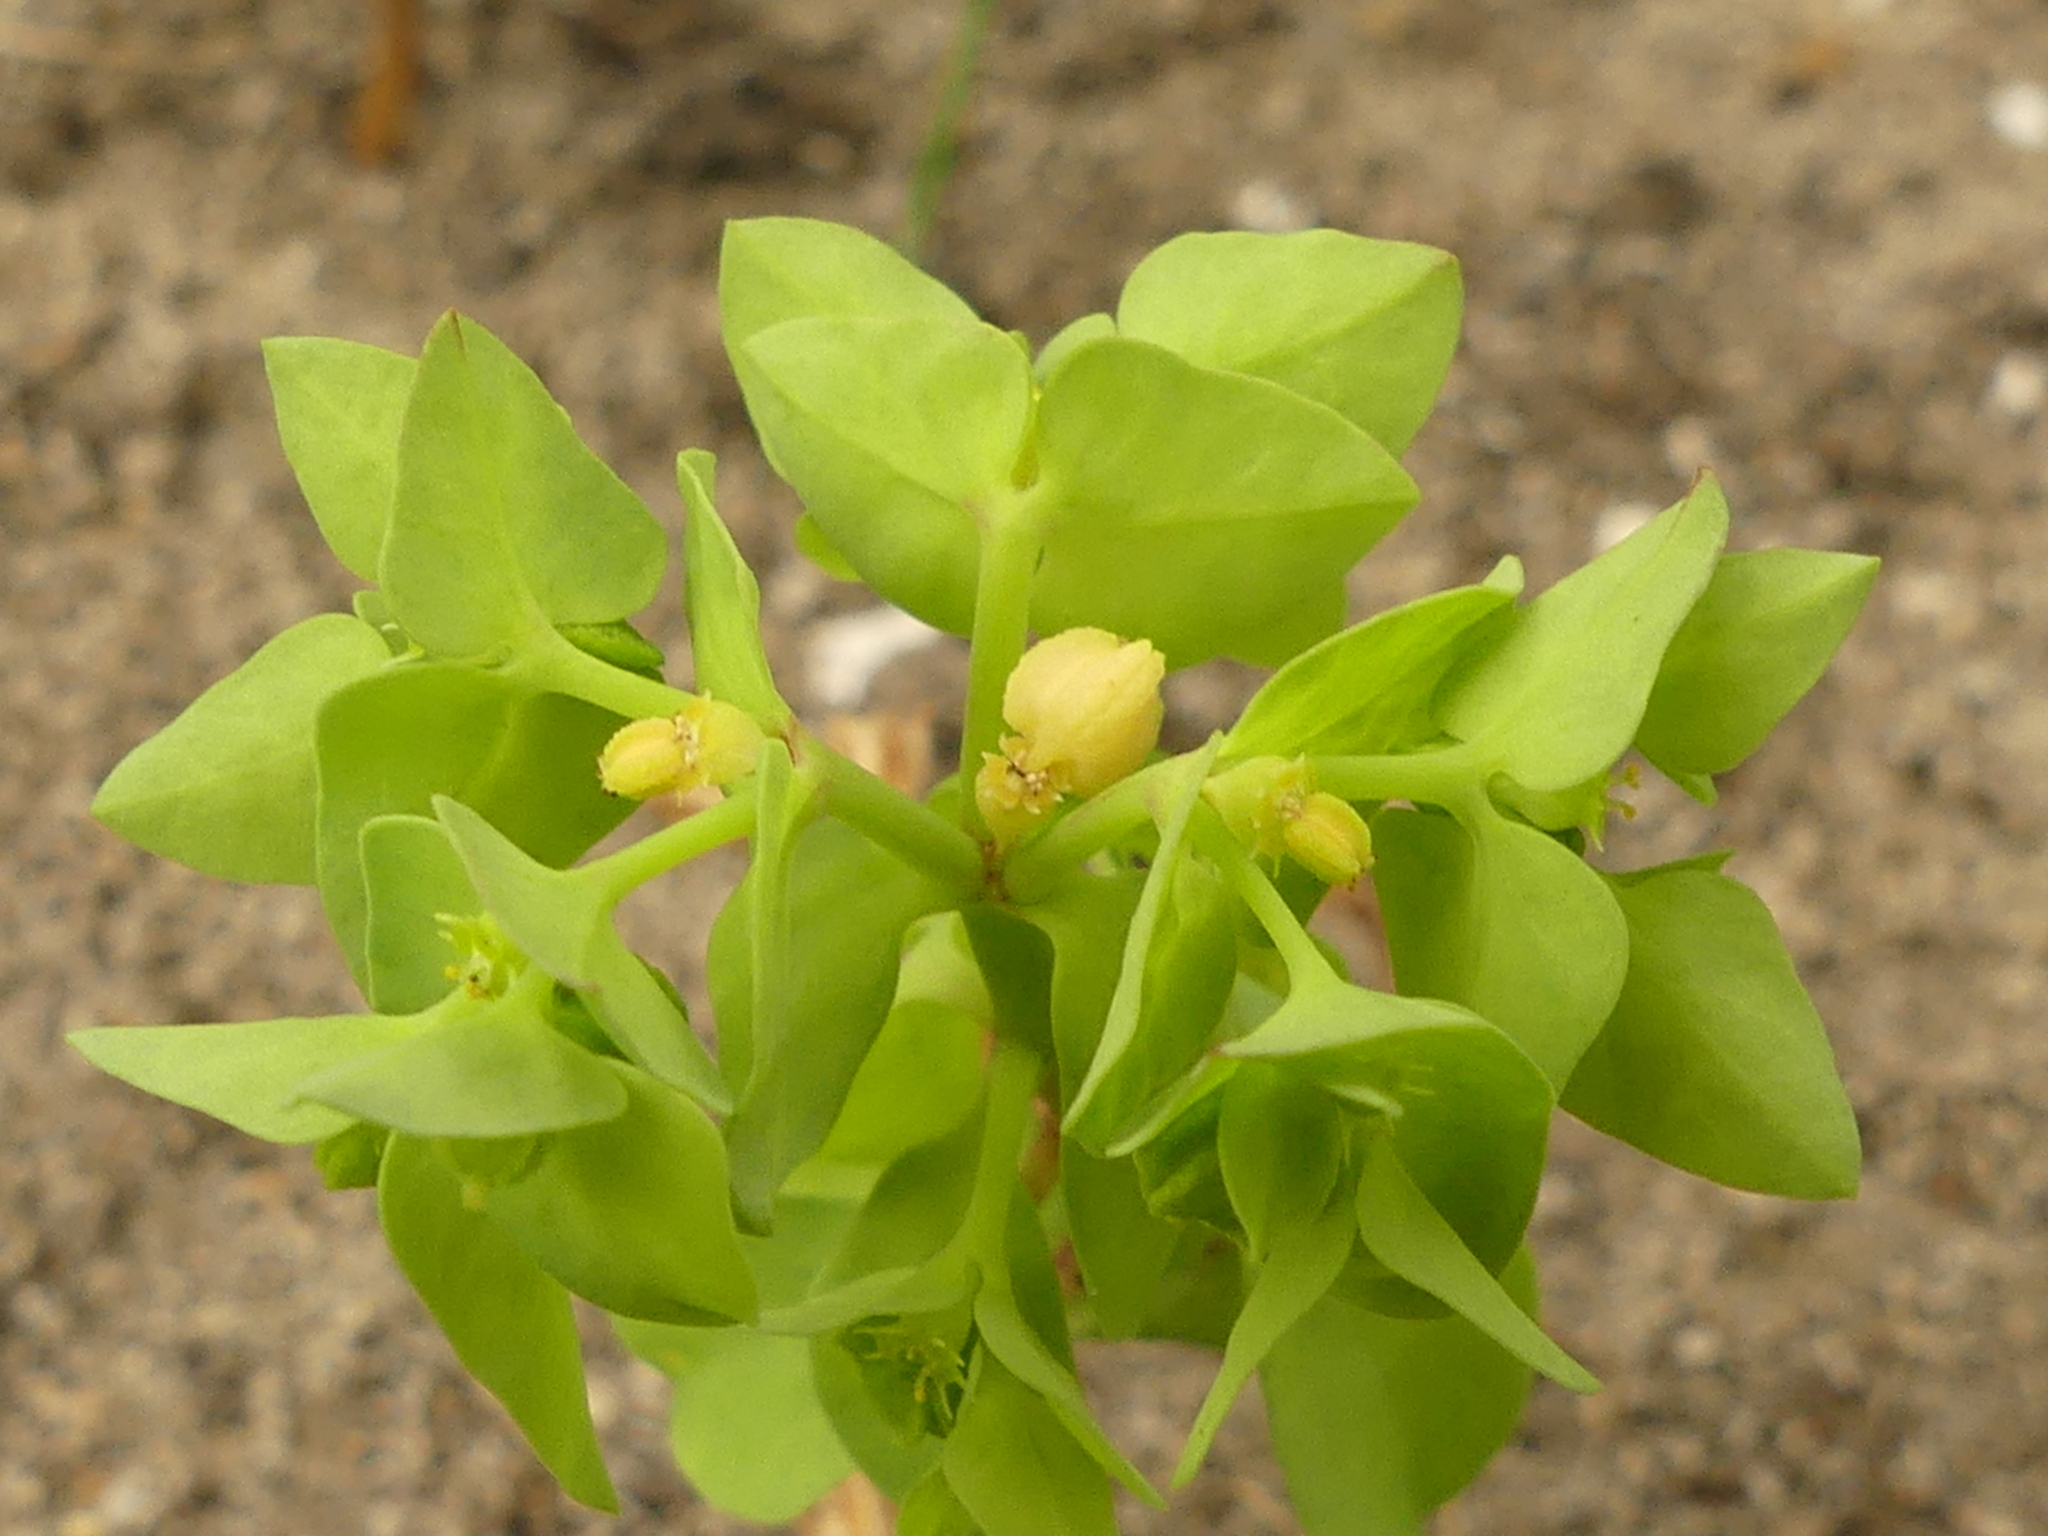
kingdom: Plantae
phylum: Tracheophyta
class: Magnoliopsida
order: Malpighiales
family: Euphorbiaceae
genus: Euphorbia
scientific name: Euphorbia peplus
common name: Petty spurge
